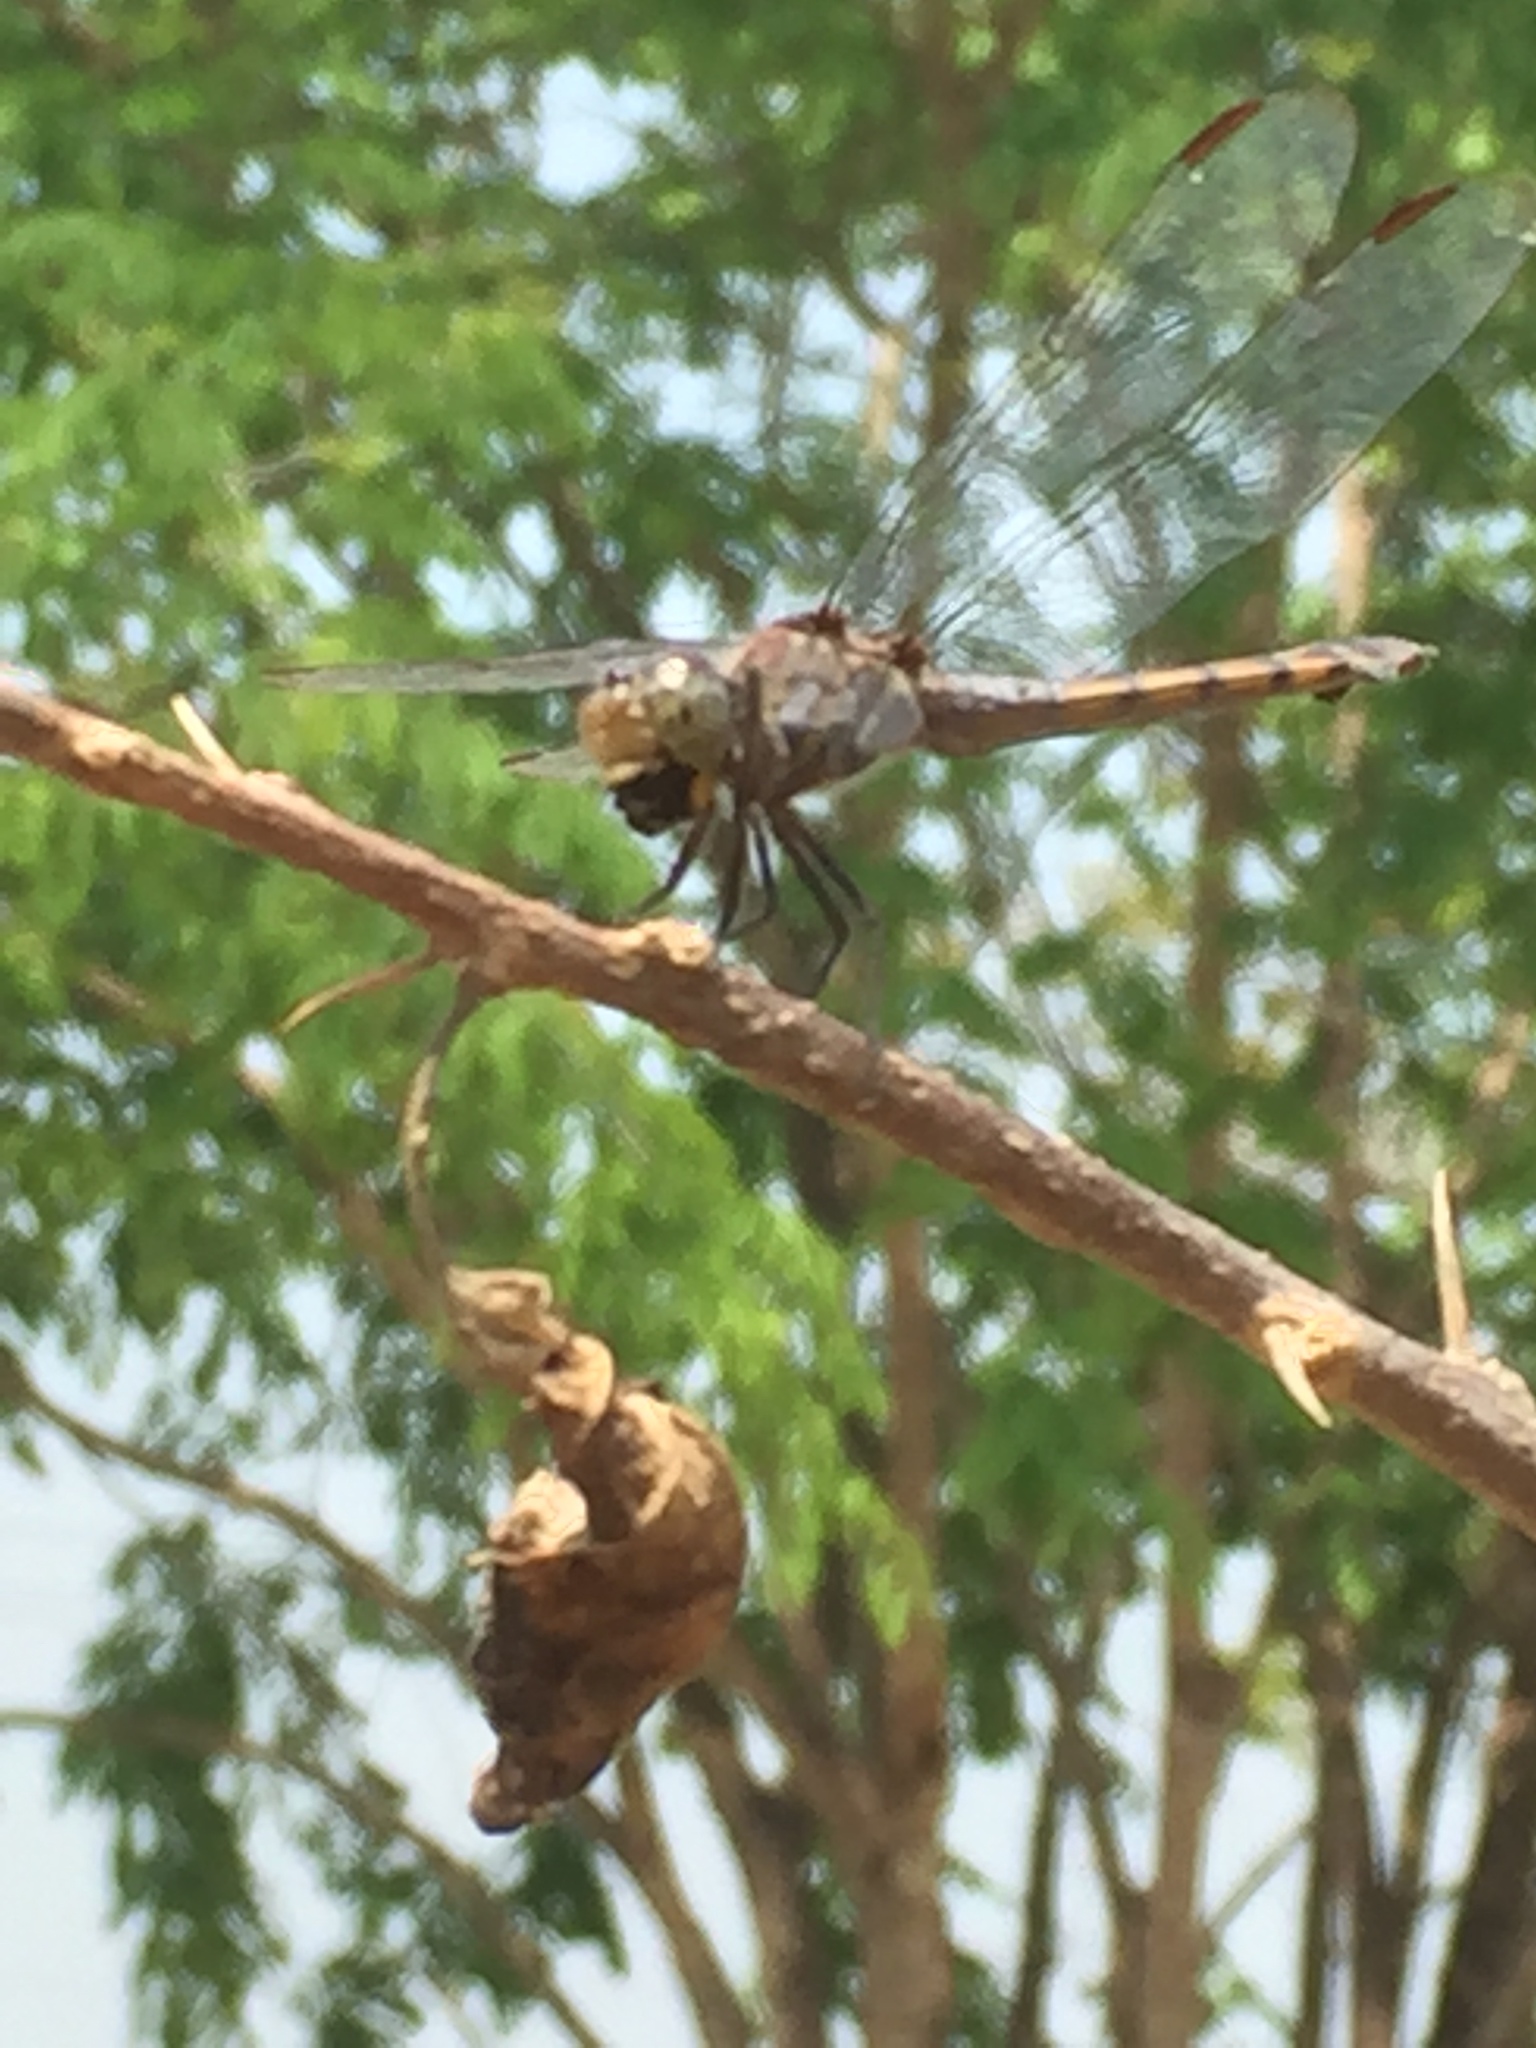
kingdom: Animalia
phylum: Arthropoda
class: Insecta
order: Odonata
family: Libellulidae
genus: Potamarcha
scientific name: Potamarcha congener
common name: Blue chaser
